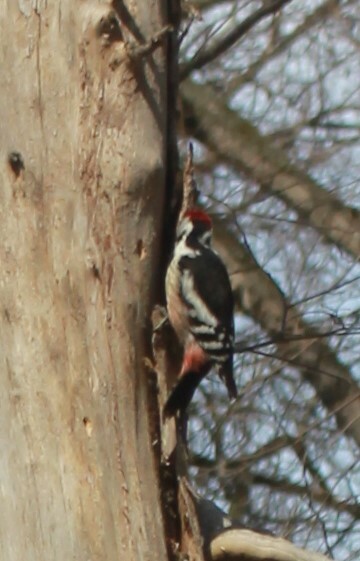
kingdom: Animalia
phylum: Chordata
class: Aves
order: Piciformes
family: Picidae
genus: Dendrocoptes
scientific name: Dendrocoptes medius
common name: Middle spotted woodpecker
